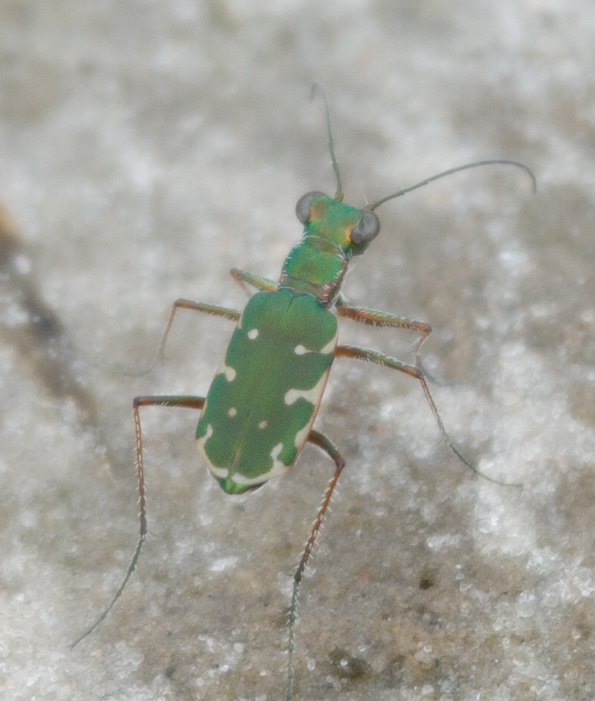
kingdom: Animalia
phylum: Arthropoda
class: Insecta
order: Coleoptera
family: Carabidae
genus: Myriochila
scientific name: Myriochila jucunda
